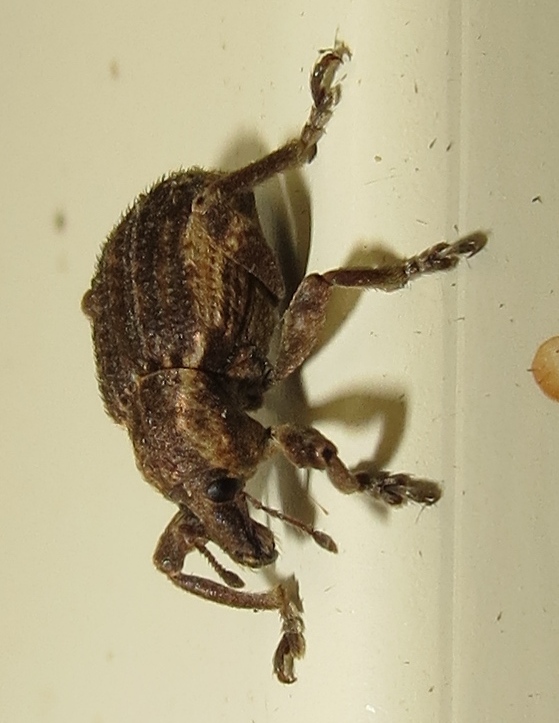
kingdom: Animalia
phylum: Arthropoda
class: Insecta
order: Coleoptera
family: Curculionidae
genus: Brachypera
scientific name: Brachypera zoilus
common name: Clover leaf weevil
